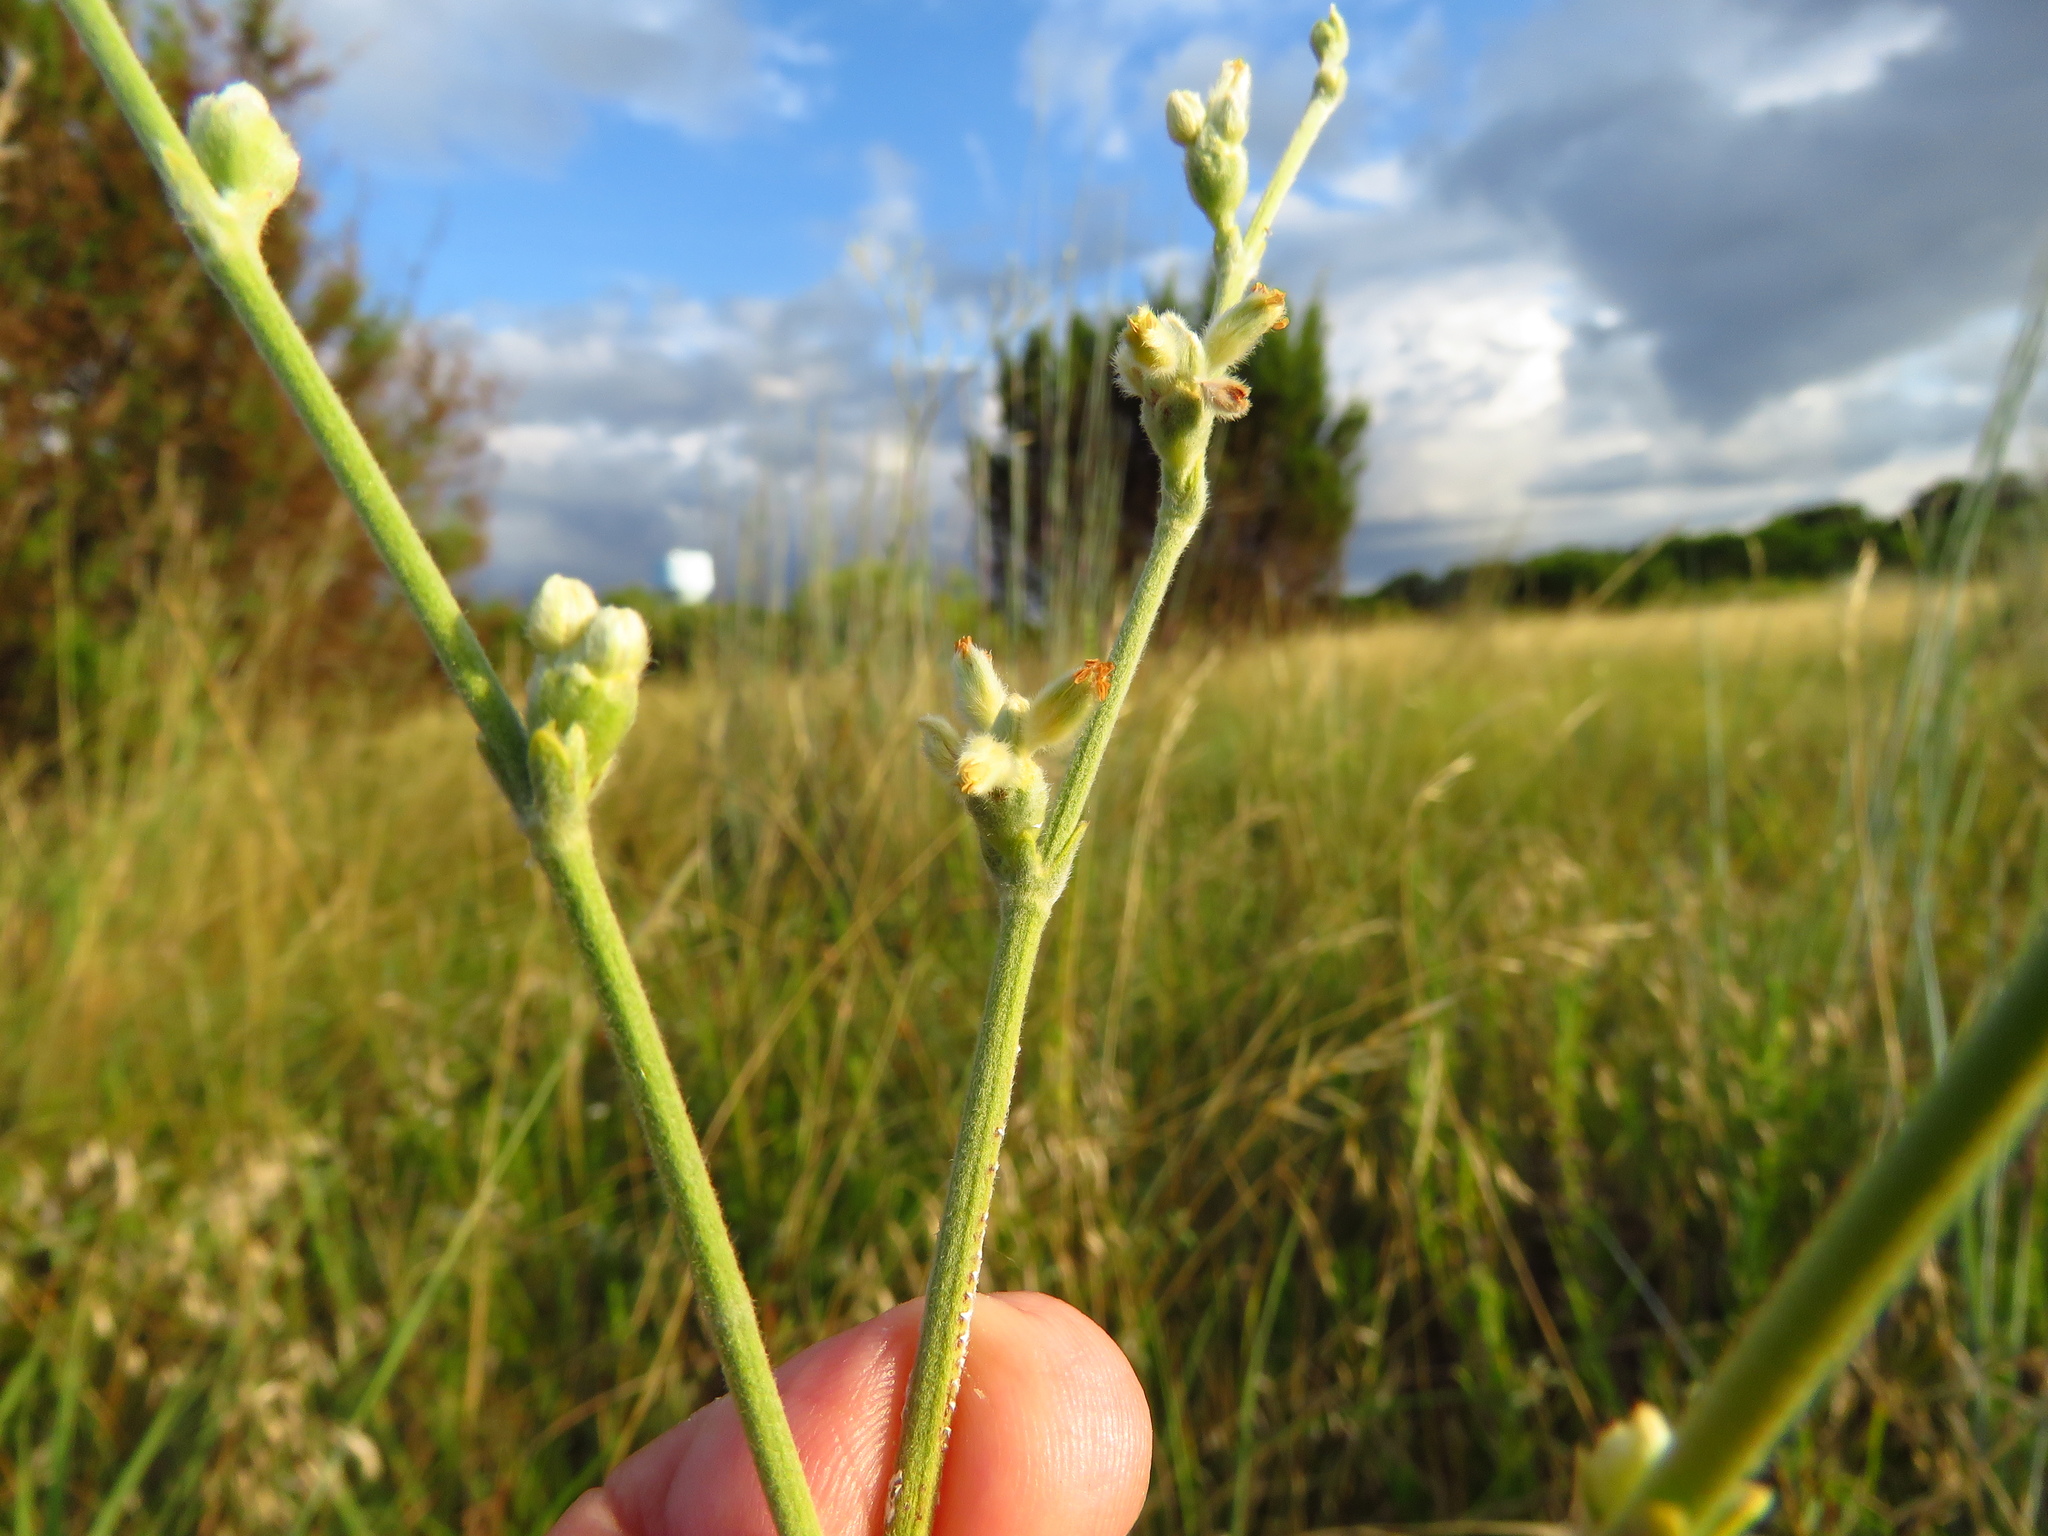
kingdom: Plantae
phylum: Tracheophyta
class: Magnoliopsida
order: Caryophyllales
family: Polygonaceae
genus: Eriogonum
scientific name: Eriogonum longifolium
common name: Longleaf wild buckwheat
